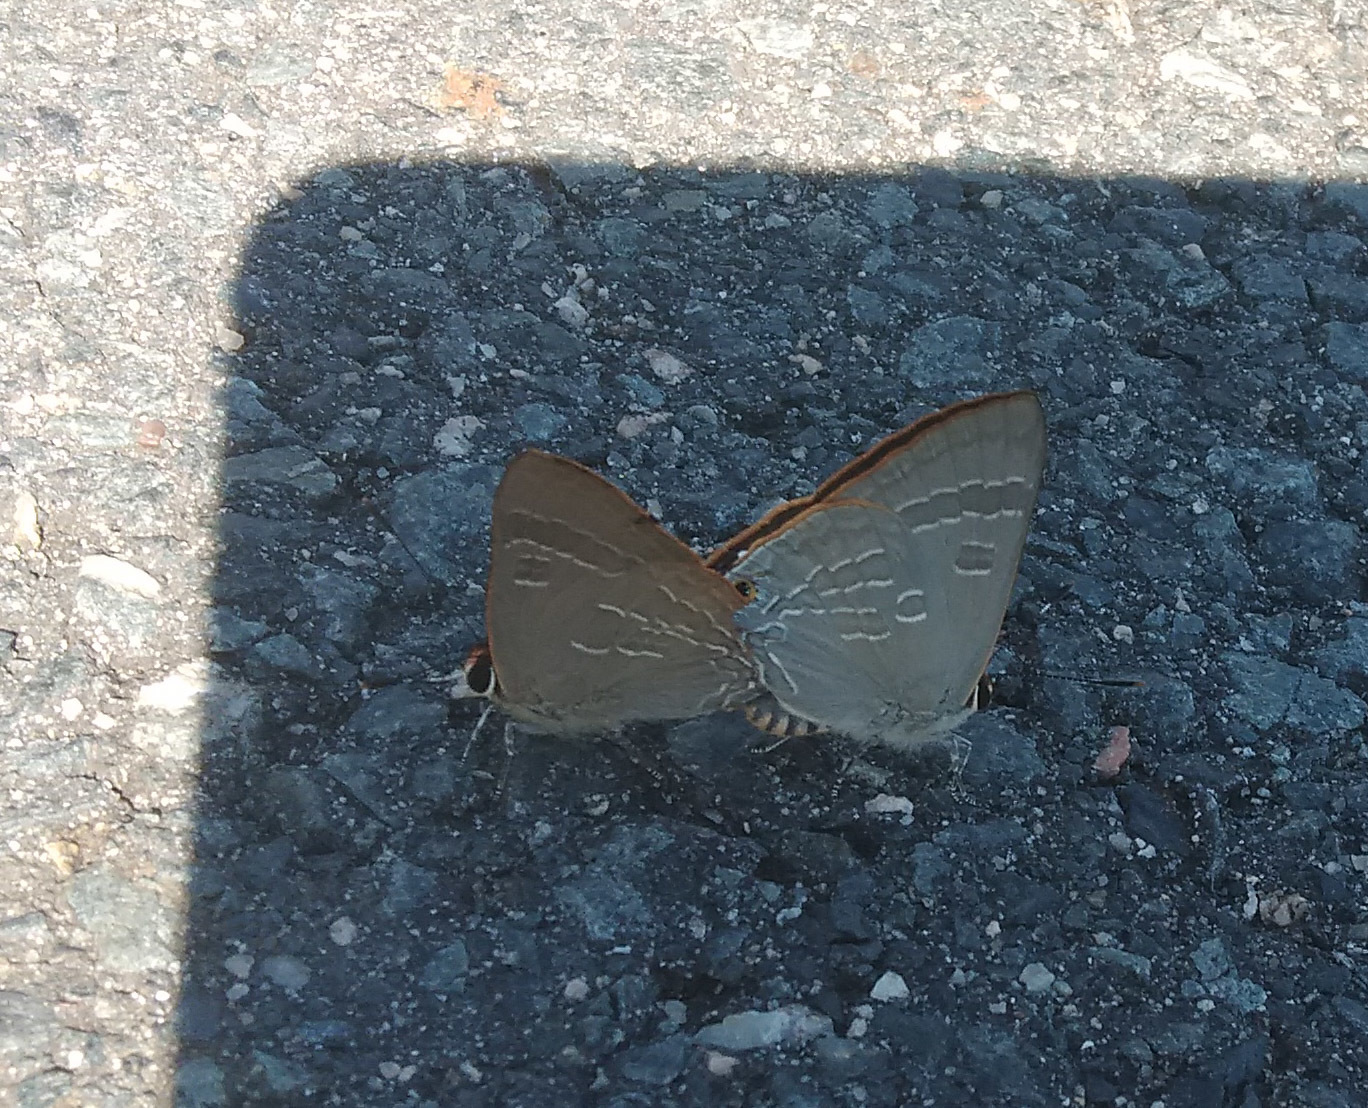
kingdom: Animalia
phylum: Arthropoda
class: Insecta
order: Lepidoptera
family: Lycaenidae
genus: Deudorix
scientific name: Deudorix diovis
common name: Bright cornelian
